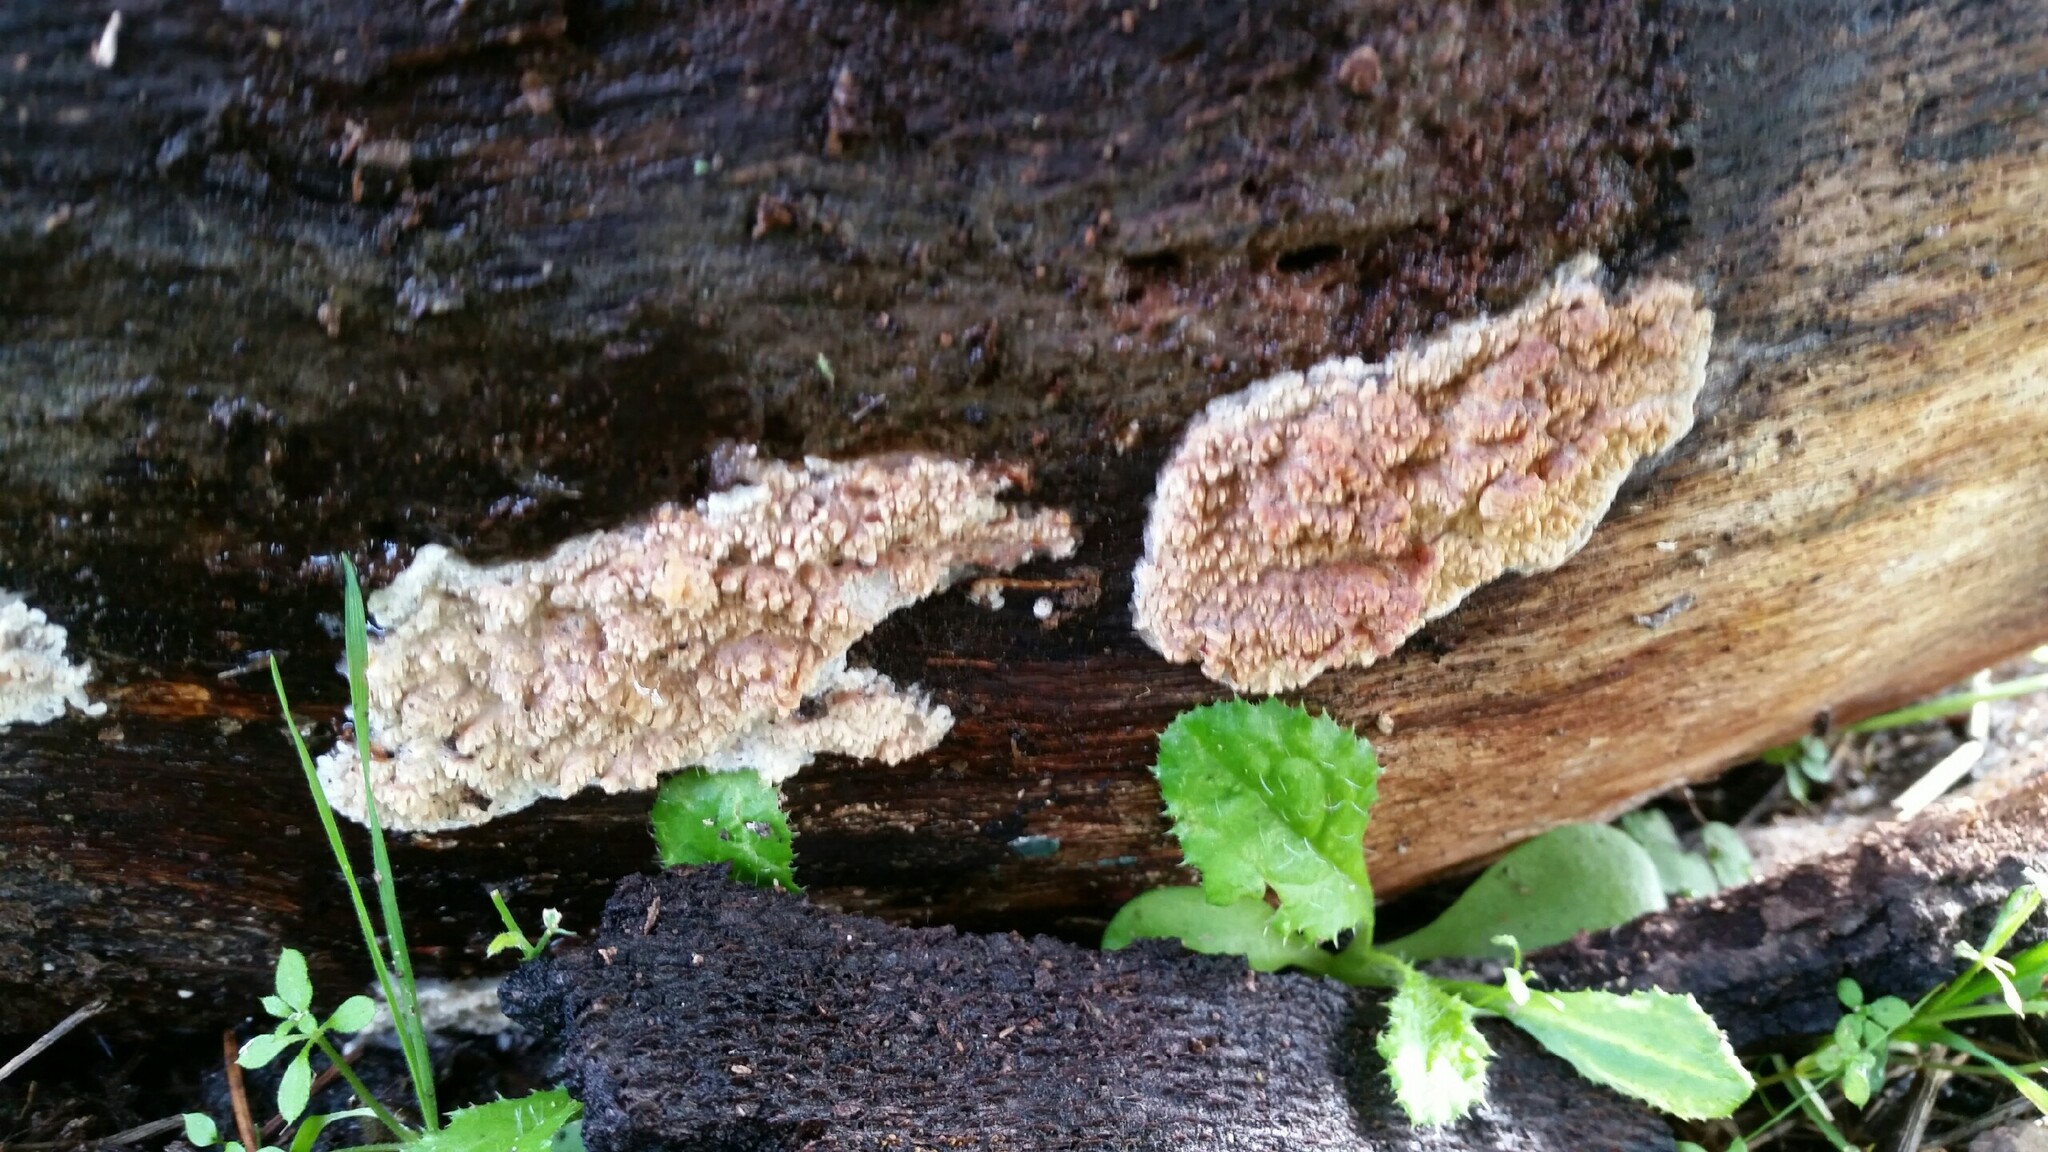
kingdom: Fungi
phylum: Basidiomycota
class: Agaricomycetes
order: Polyporales
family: Meruliaceae
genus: Phlebia
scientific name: Phlebia radiata
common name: Wrinkled crust
